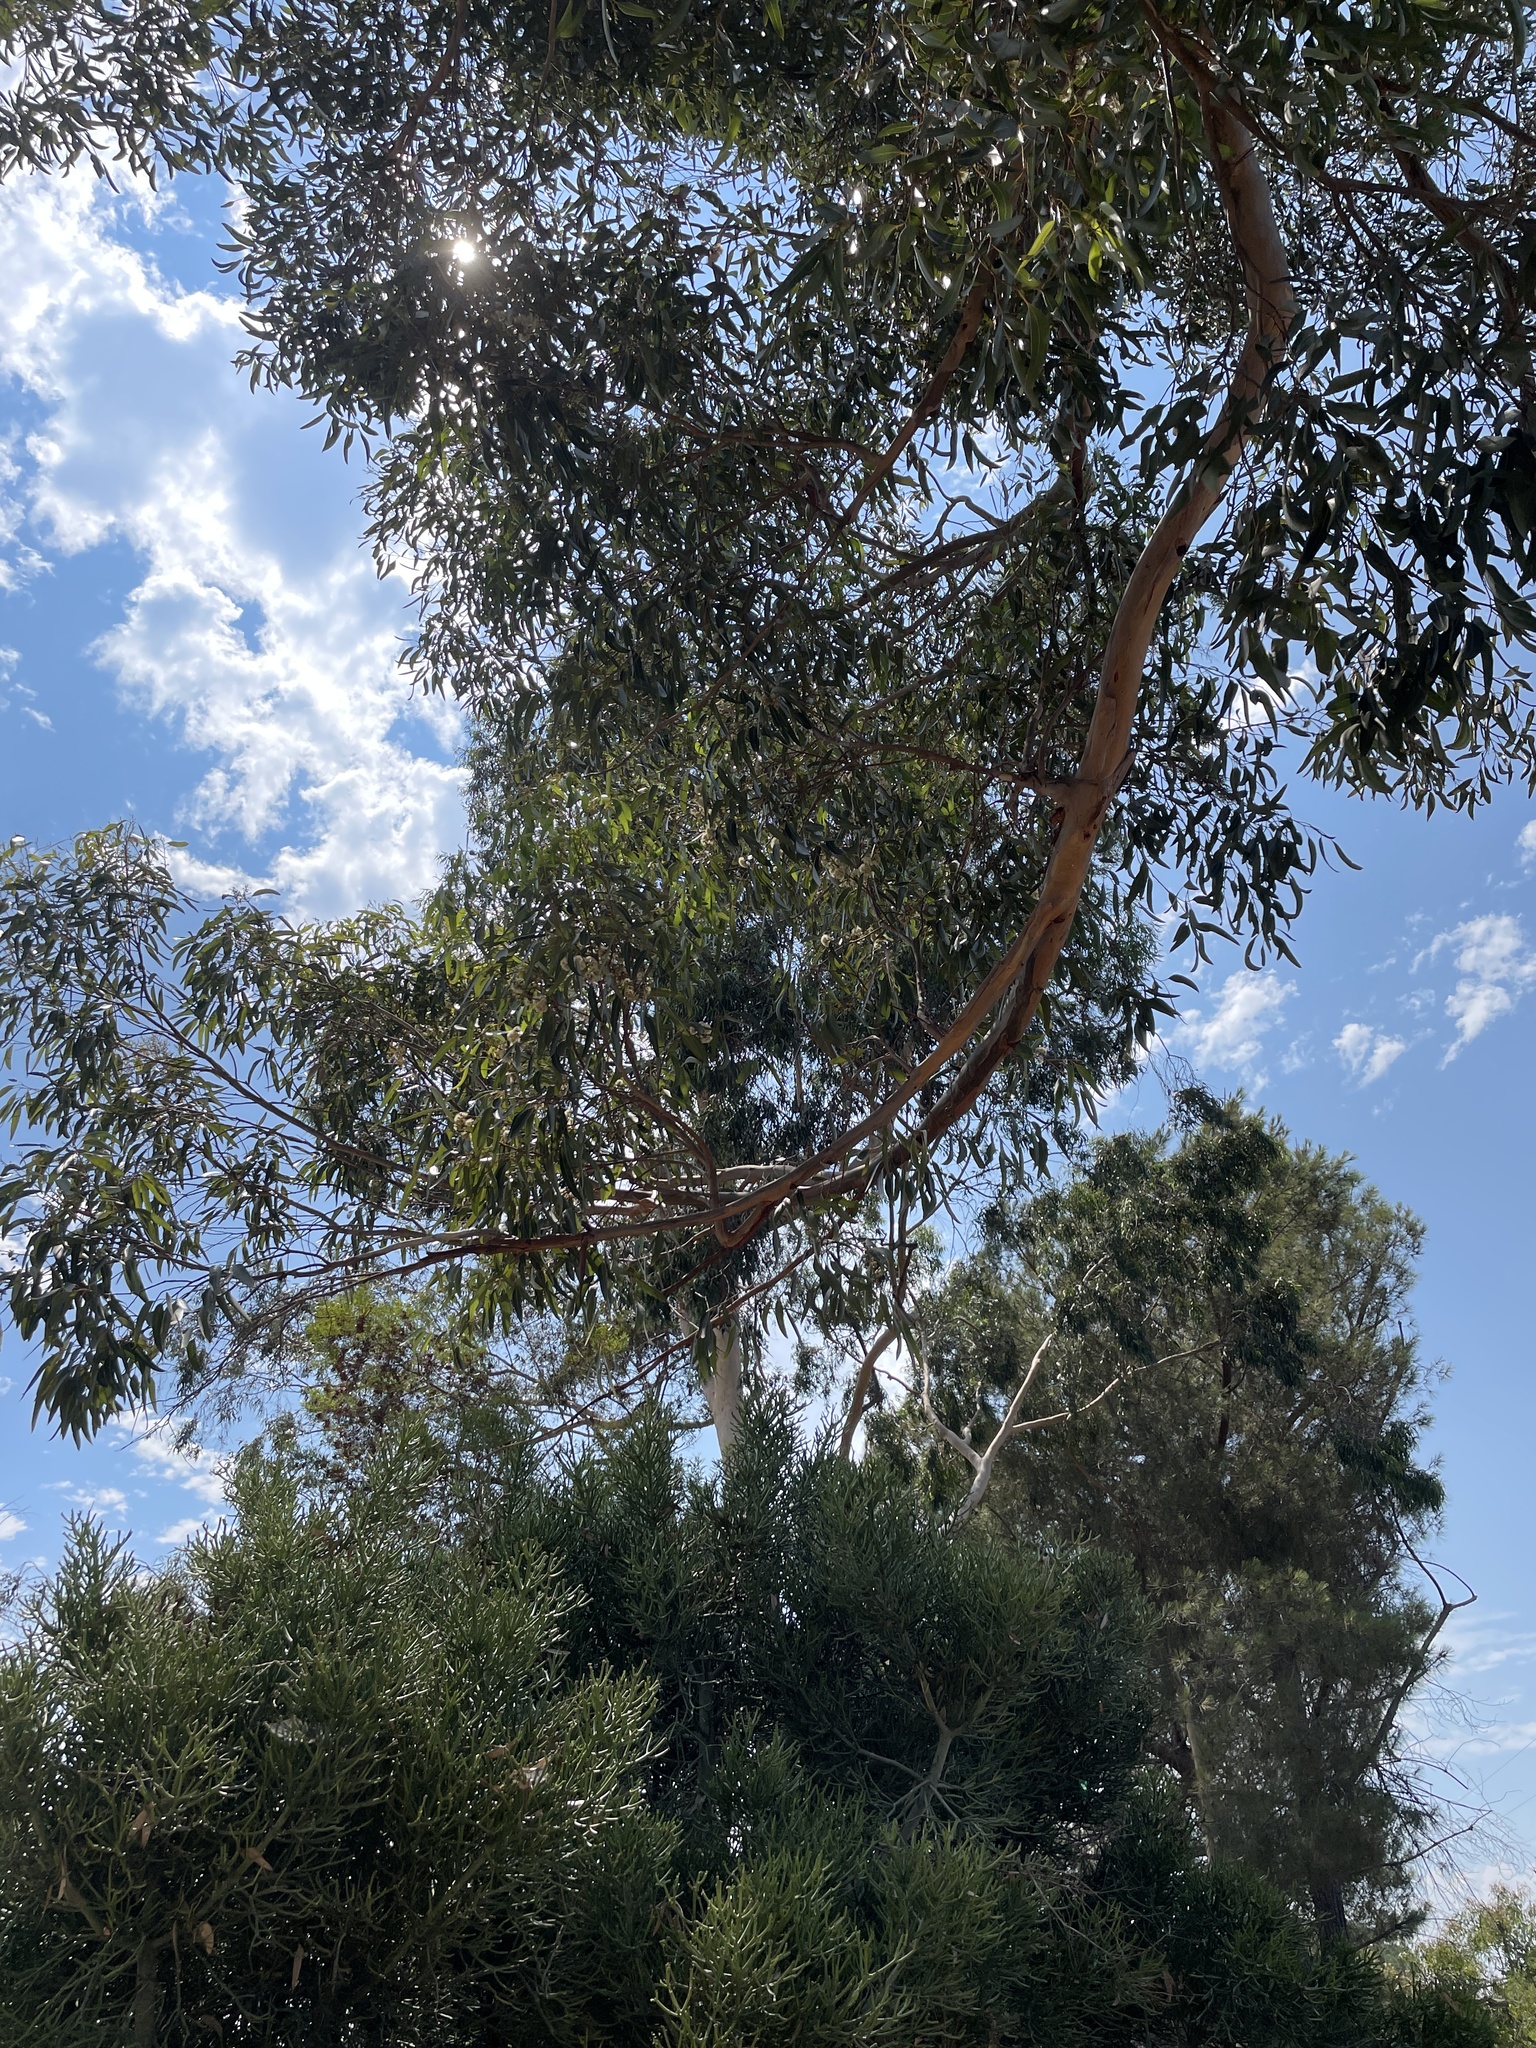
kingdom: Plantae
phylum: Tracheophyta
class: Magnoliopsida
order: Myrtales
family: Myrtaceae
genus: Eucalyptus
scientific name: Eucalyptus cladocalyx
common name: Sugargum
